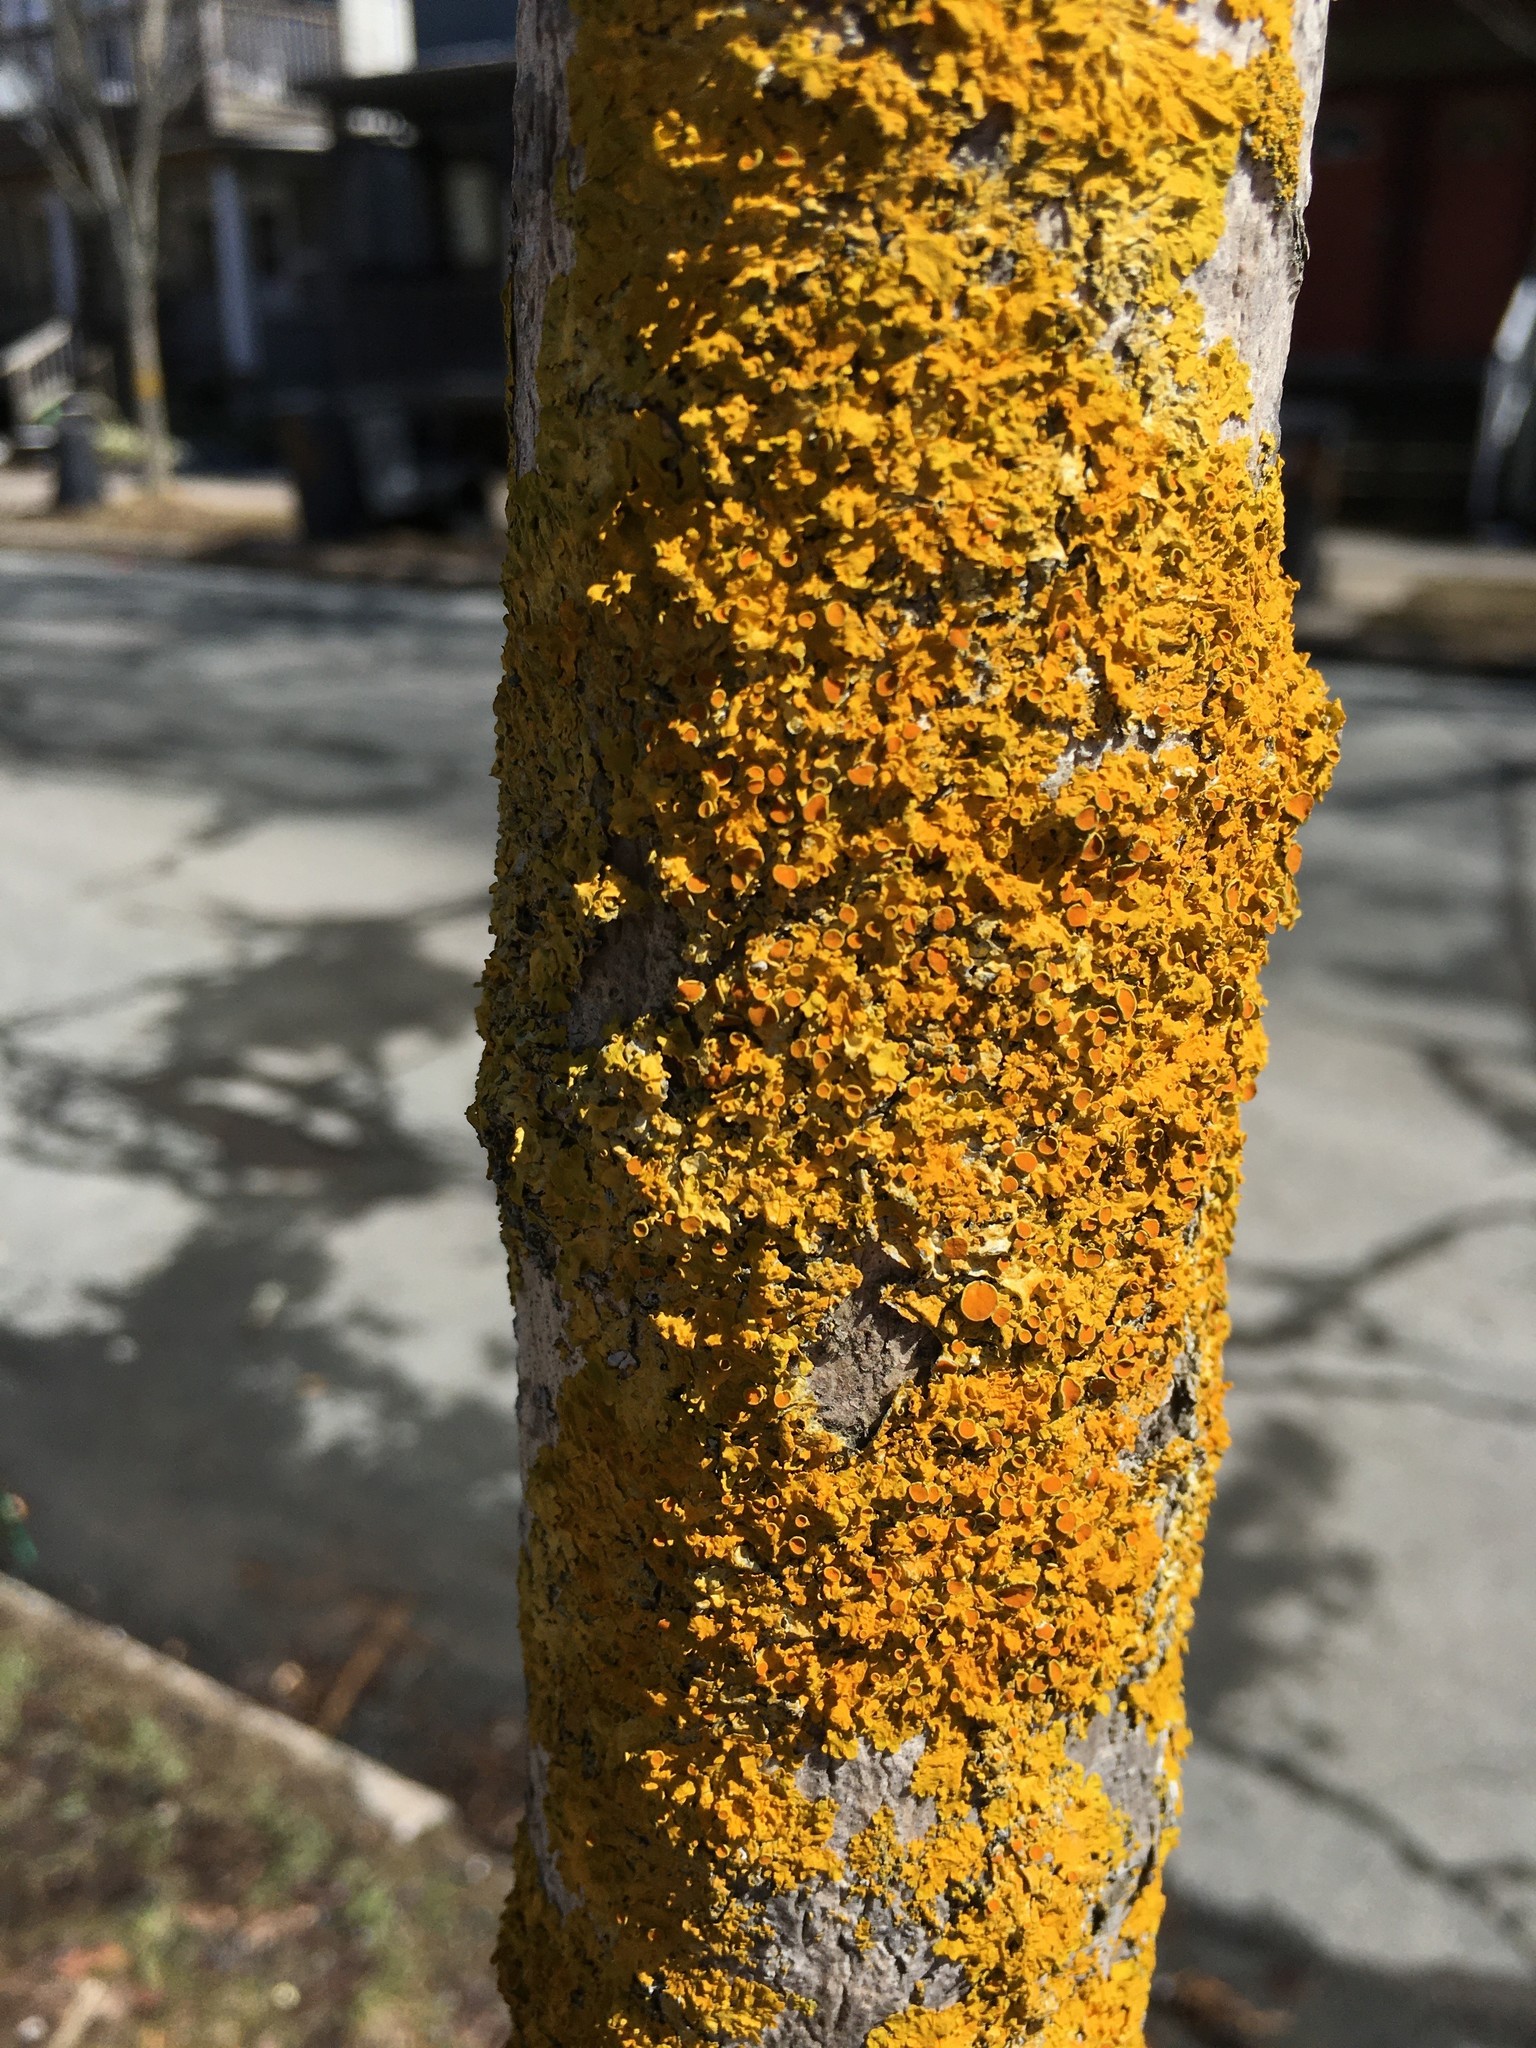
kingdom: Fungi
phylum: Ascomycota
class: Lecanoromycetes
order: Teloschistales
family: Teloschistaceae
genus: Xanthoria
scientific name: Xanthoria parietina
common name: Common orange lichen
